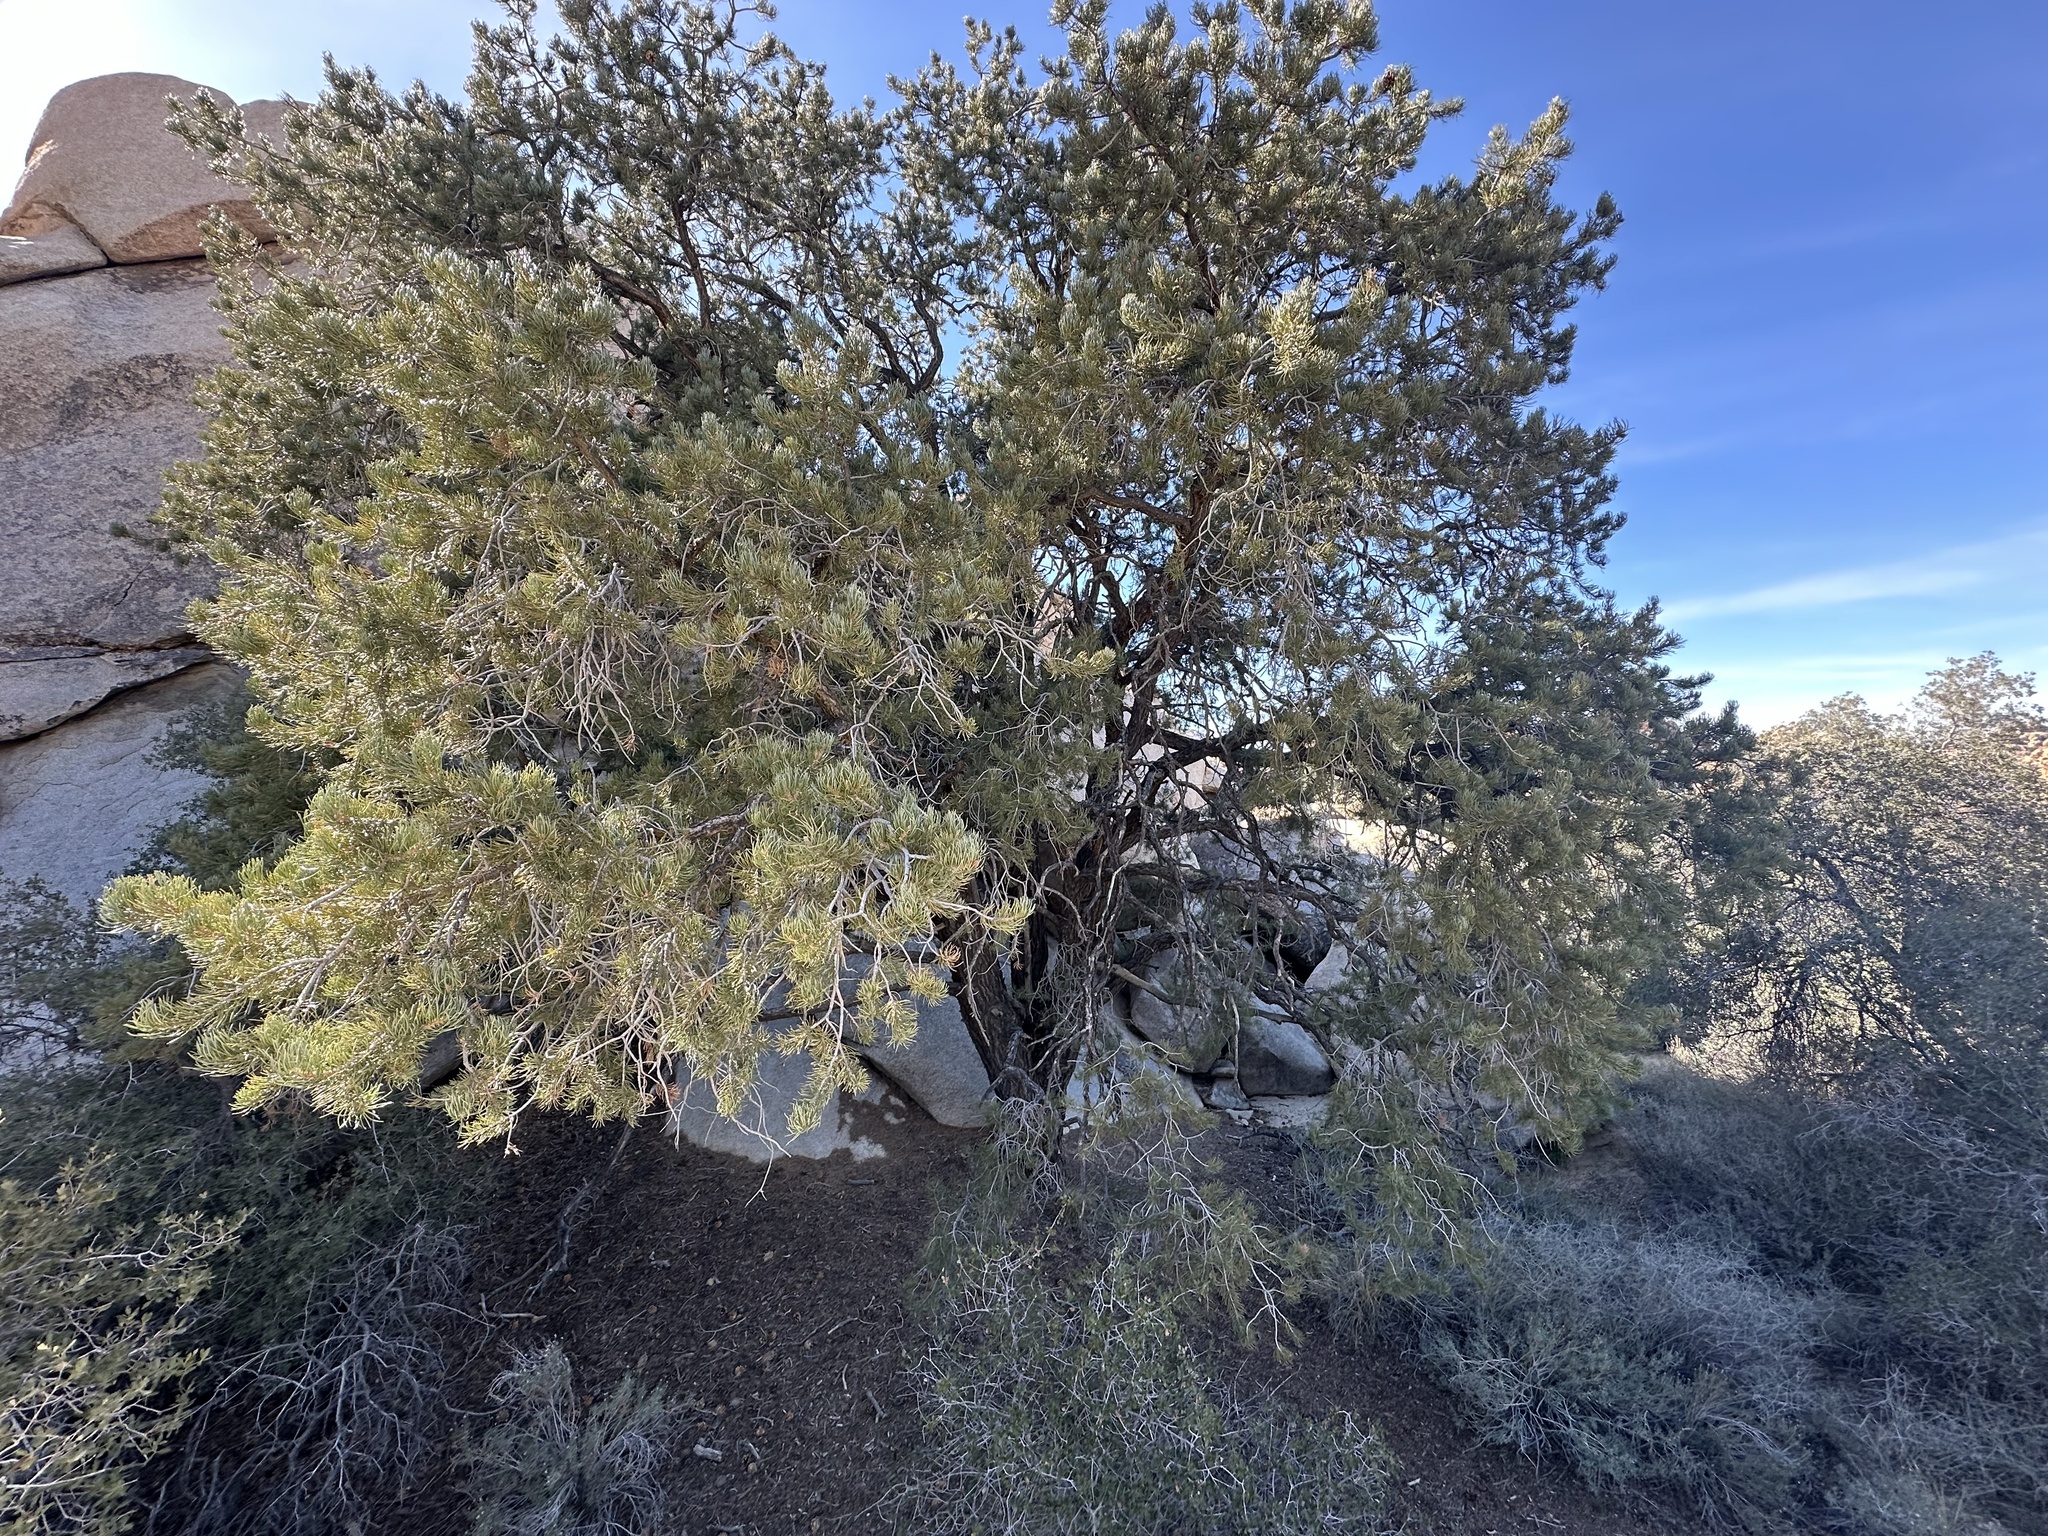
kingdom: Plantae
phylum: Tracheophyta
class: Pinopsida
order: Pinales
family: Pinaceae
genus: Pinus
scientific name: Pinus monophylla
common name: One-leaved nut pine
